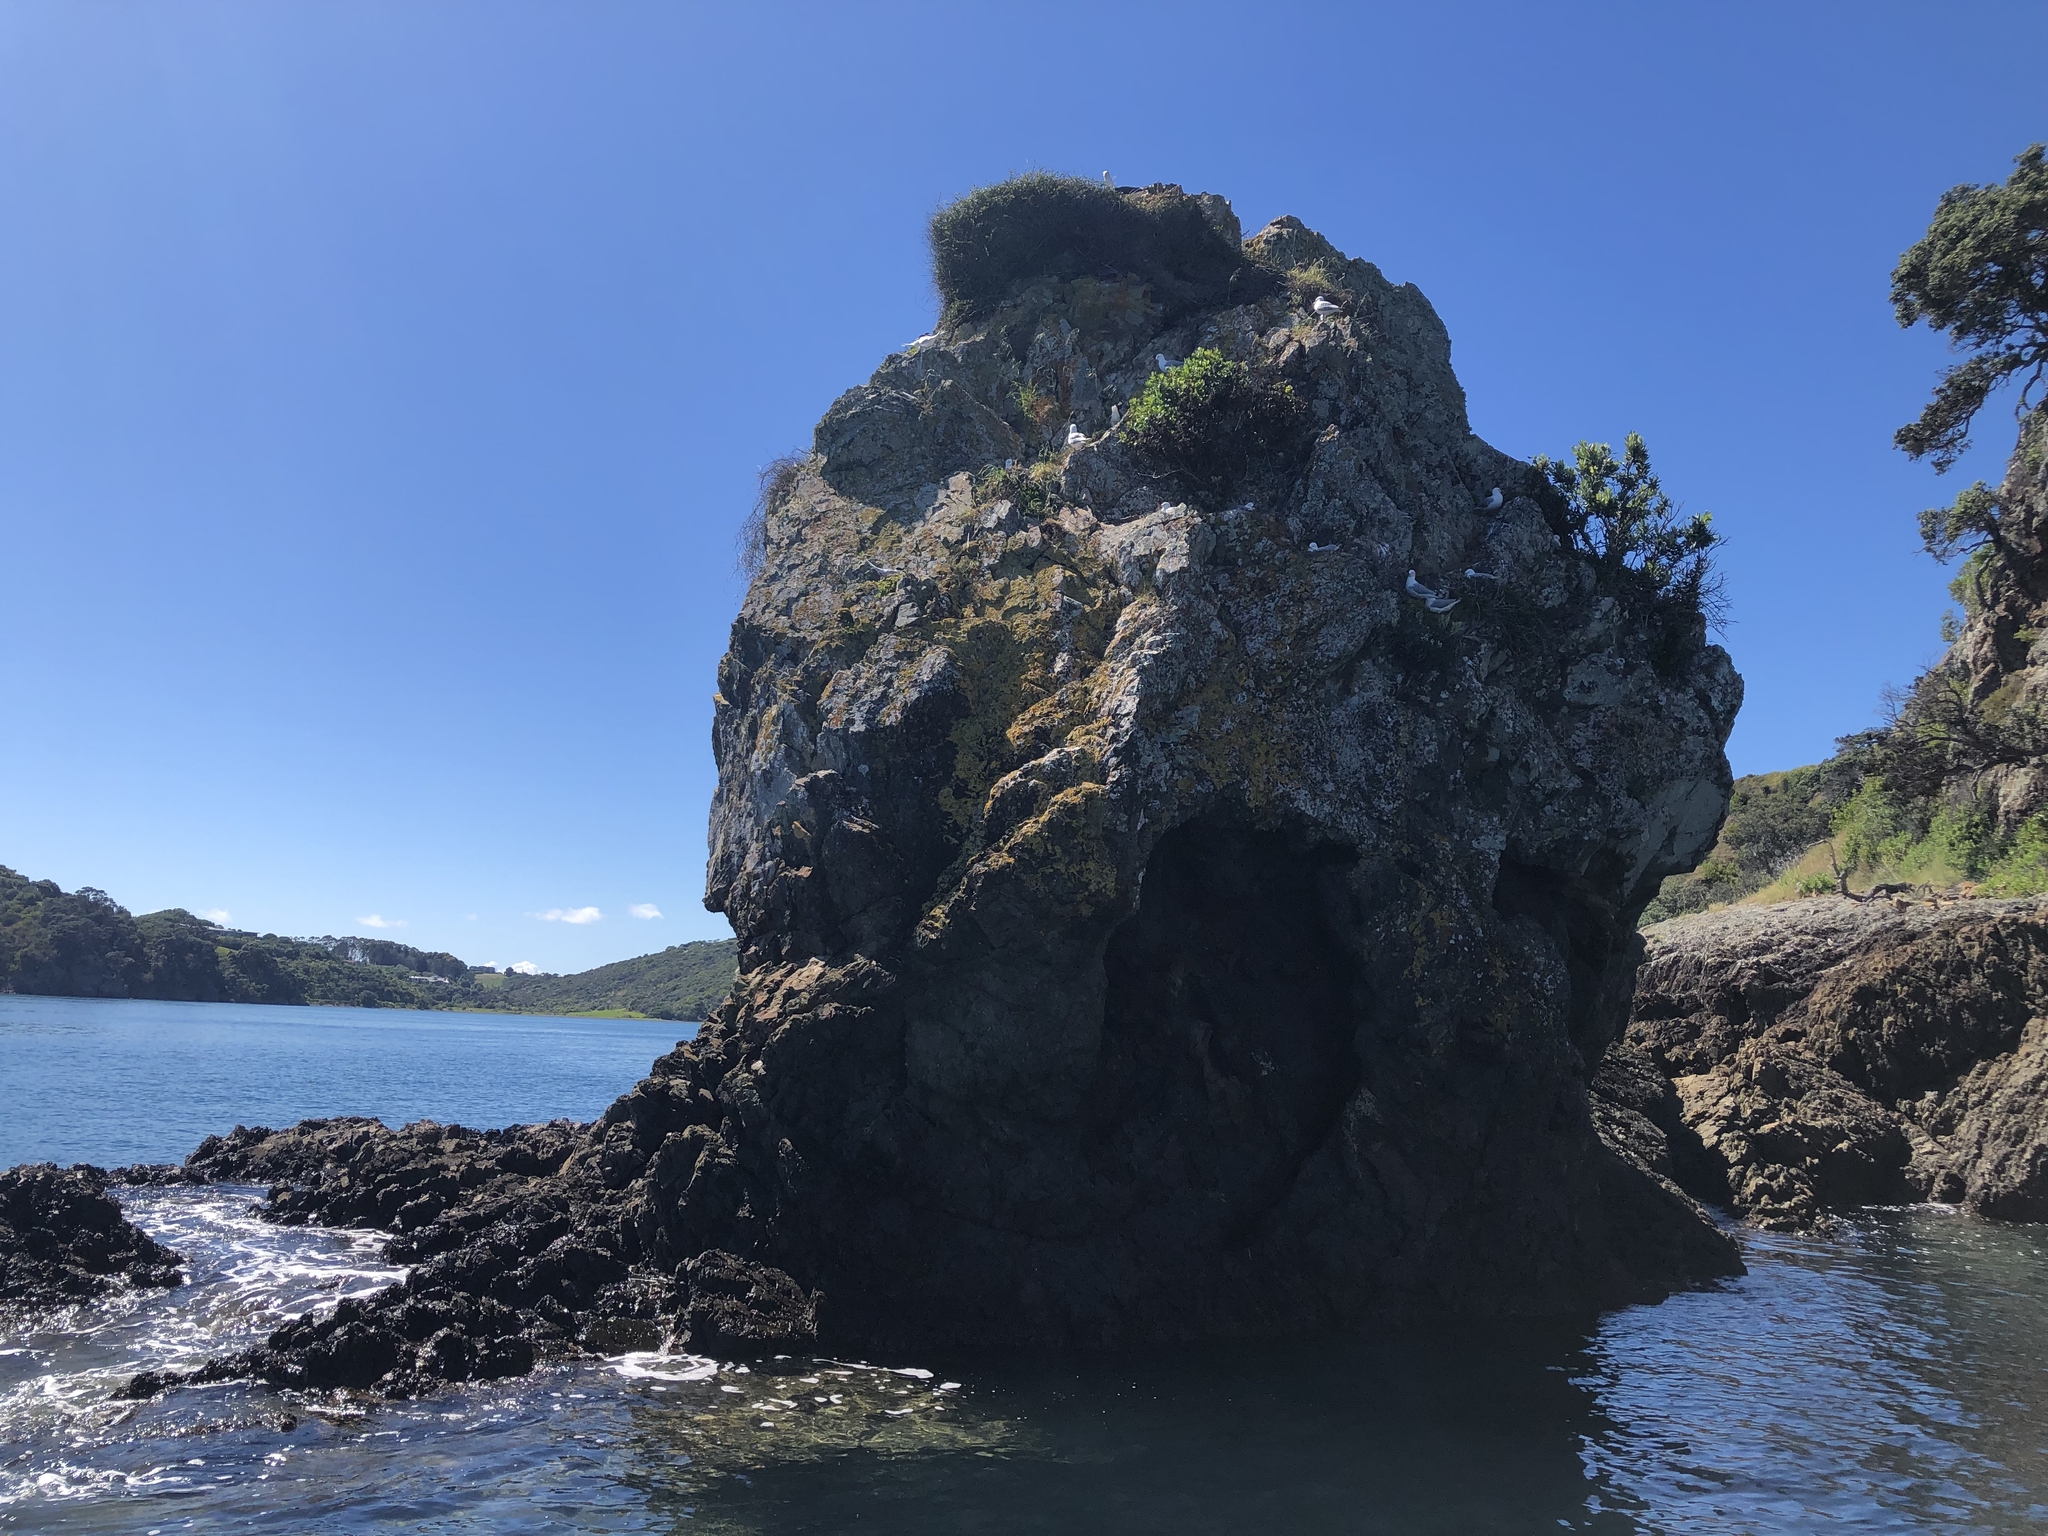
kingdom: Animalia
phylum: Chordata
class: Aves
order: Charadriiformes
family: Laridae
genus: Chroicocephalus
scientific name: Chroicocephalus novaehollandiae
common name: Silver gull
